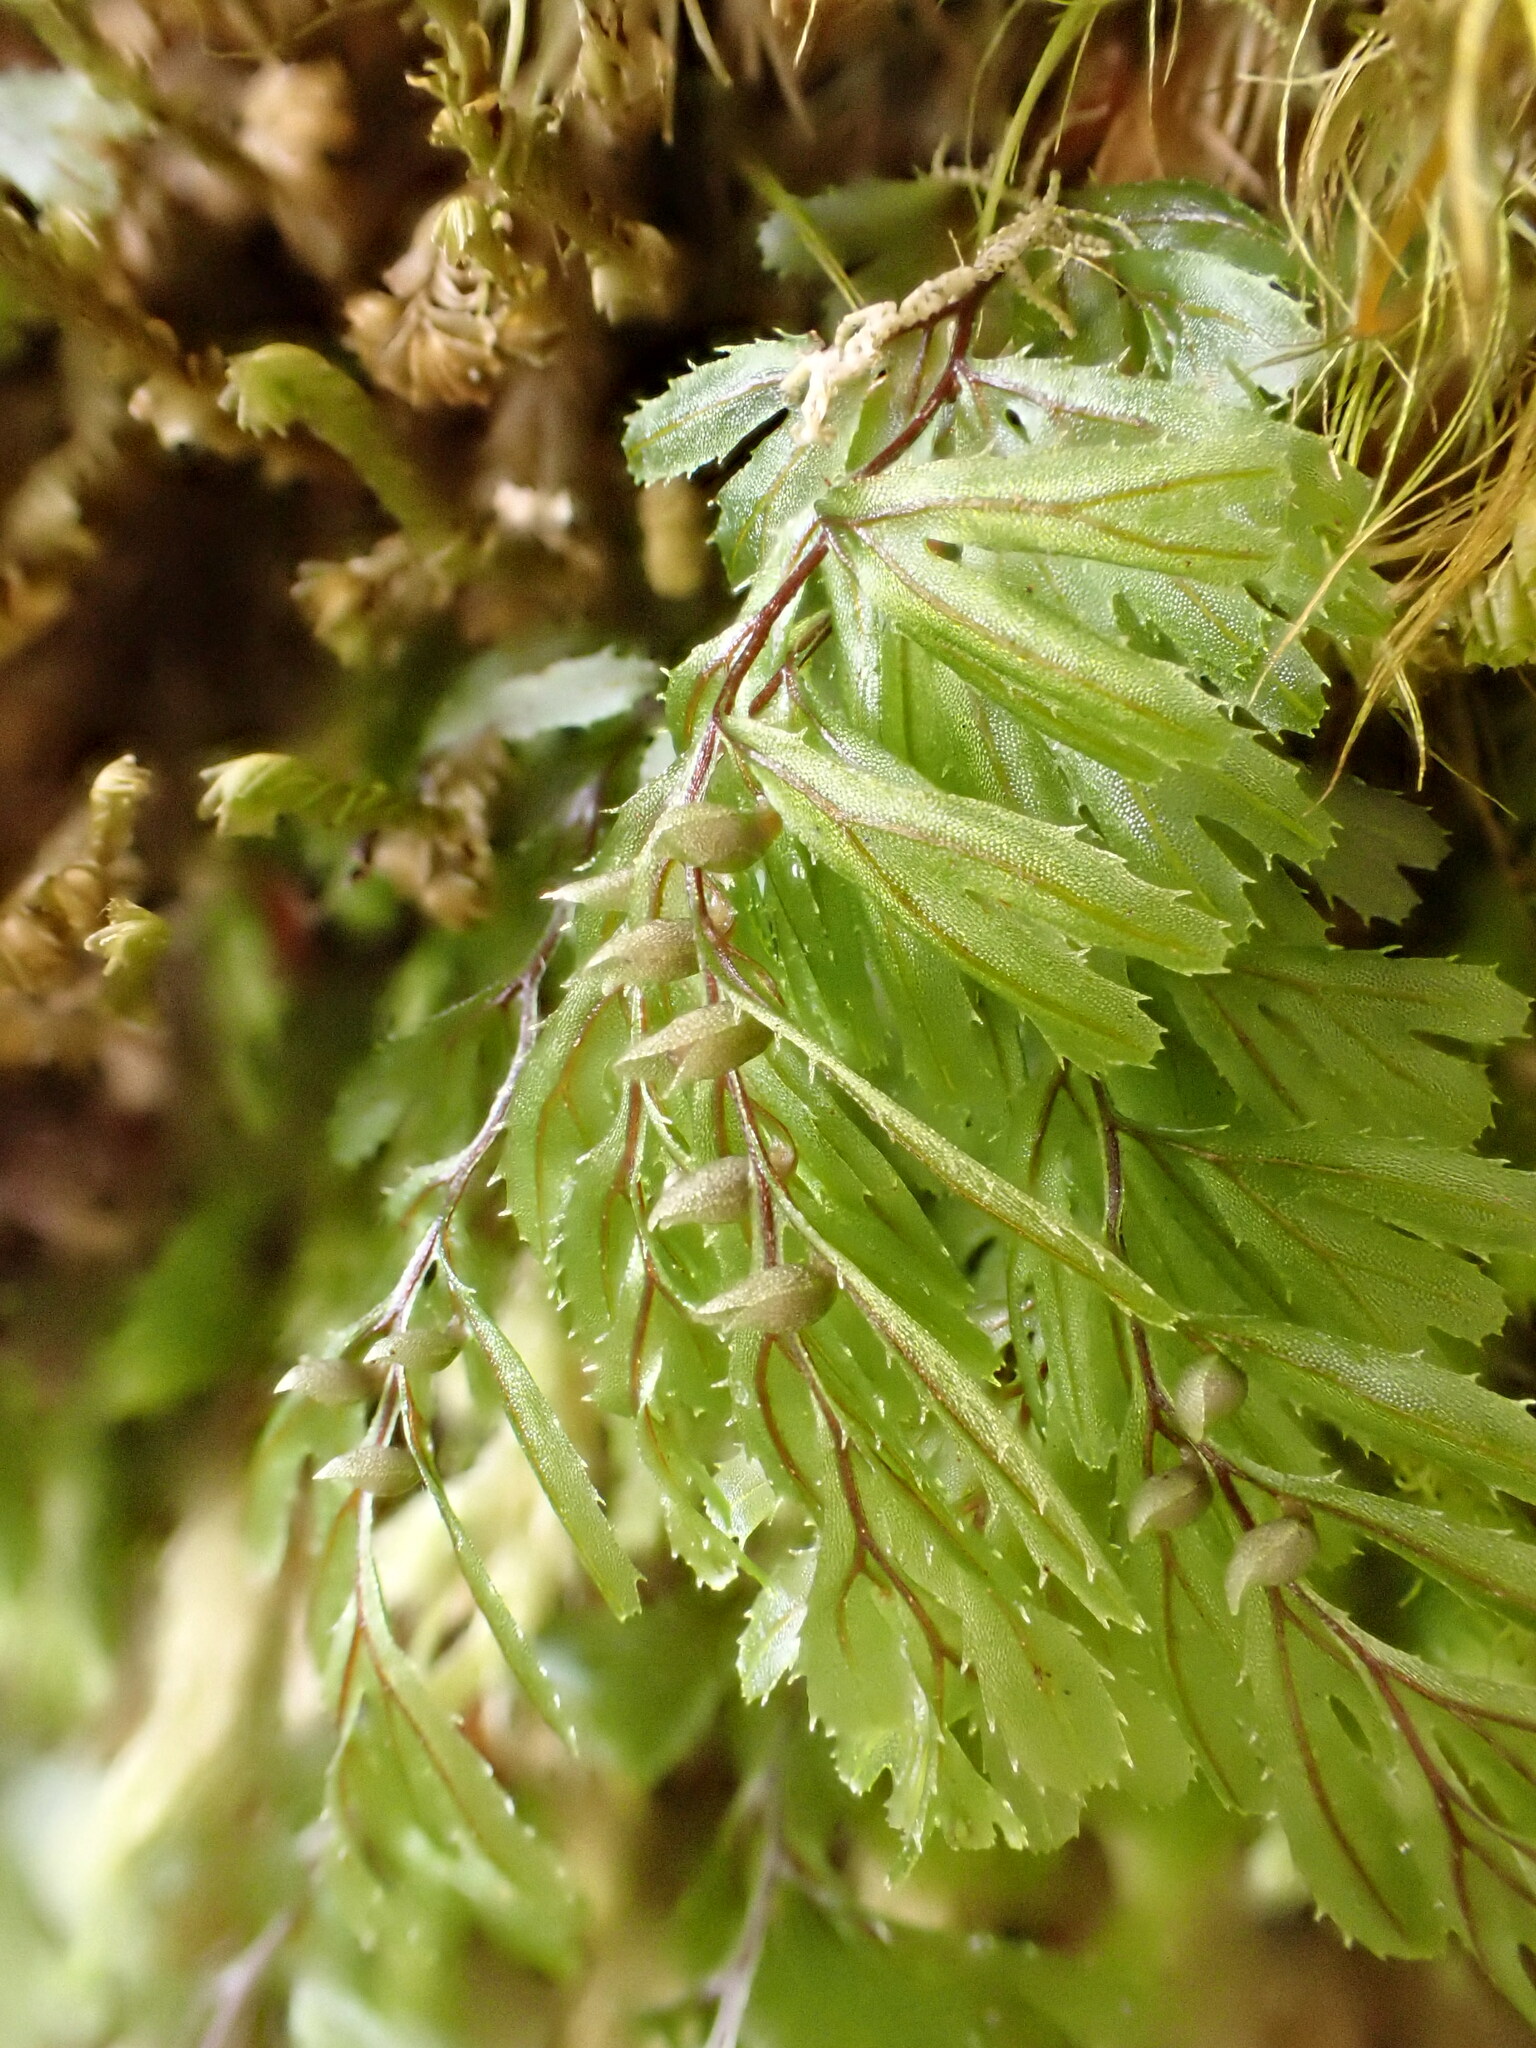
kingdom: Plantae
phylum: Tracheophyta
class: Polypodiopsida
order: Hymenophyllales
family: Hymenophyllaceae
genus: Hymenophyllum
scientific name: Hymenophyllum multifidum
